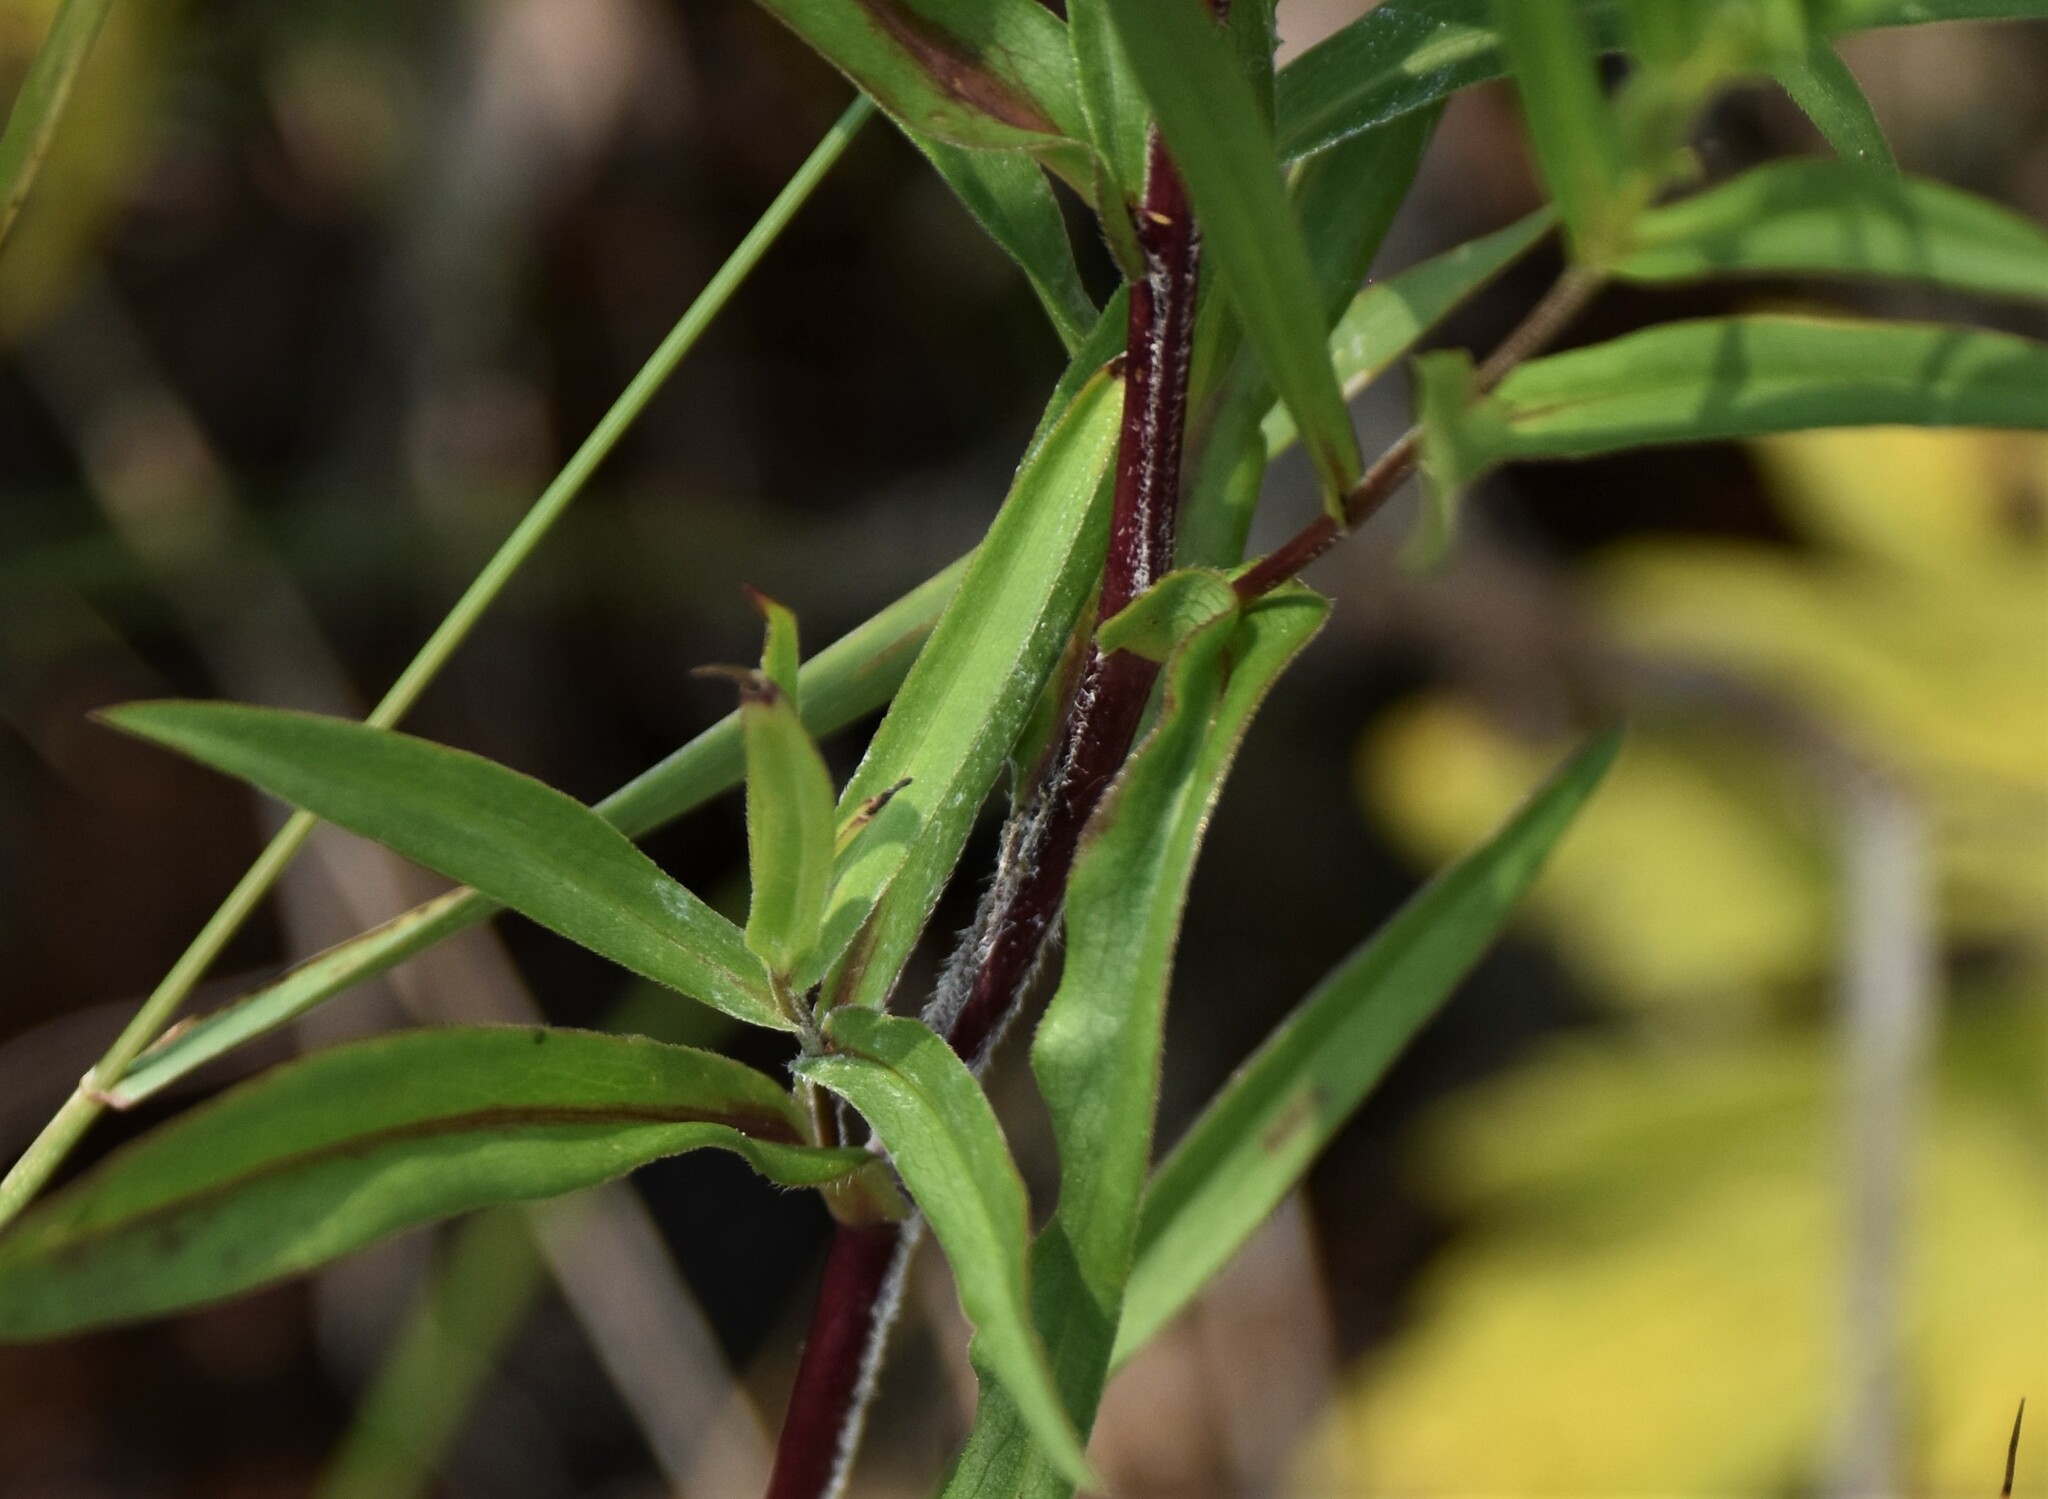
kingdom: Plantae
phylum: Tracheophyta
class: Magnoliopsida
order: Asterales
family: Asteraceae
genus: Symphyotrichum
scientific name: Symphyotrichum lanceolatum
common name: Panicled aster
